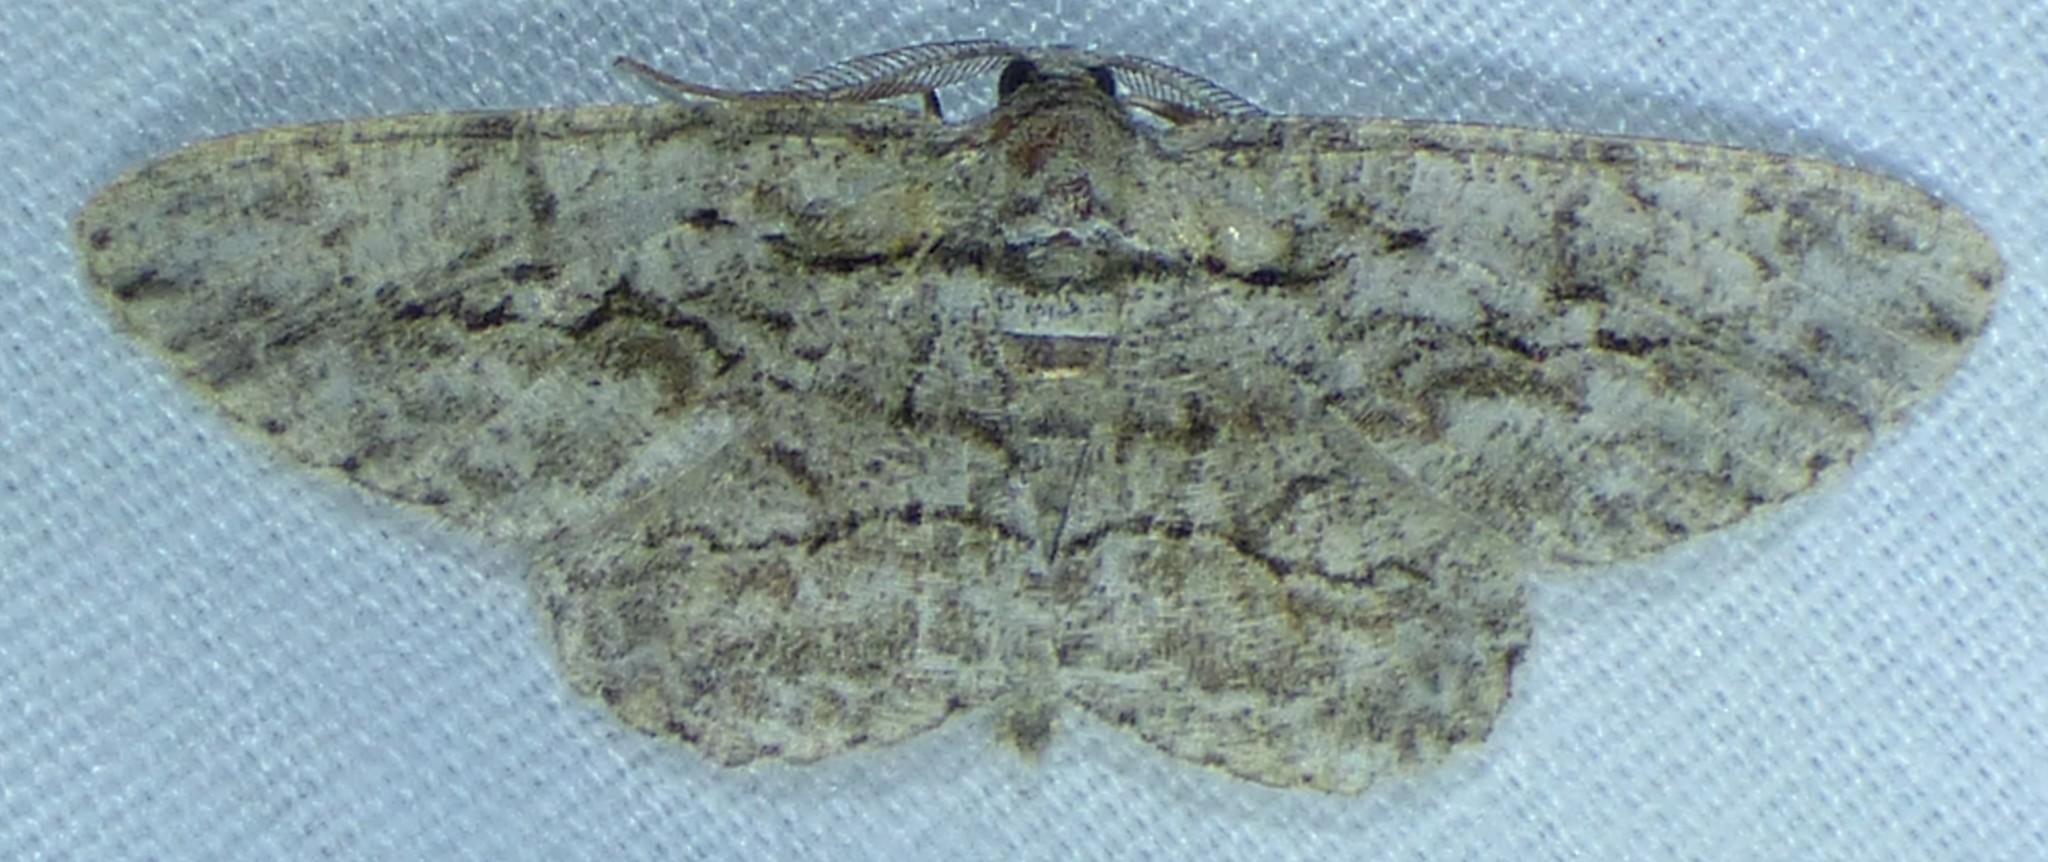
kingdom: Animalia
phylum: Arthropoda
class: Insecta
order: Lepidoptera
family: Geometridae
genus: Anavitrinella
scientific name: Anavitrinella pampinaria
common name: Common gray
